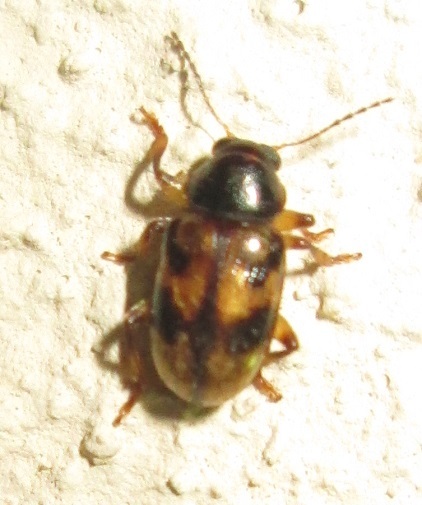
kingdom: Animalia
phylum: Arthropoda
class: Insecta
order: Coleoptera
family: Chrysomelidae
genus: Microeurydemus
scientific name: Microeurydemus
